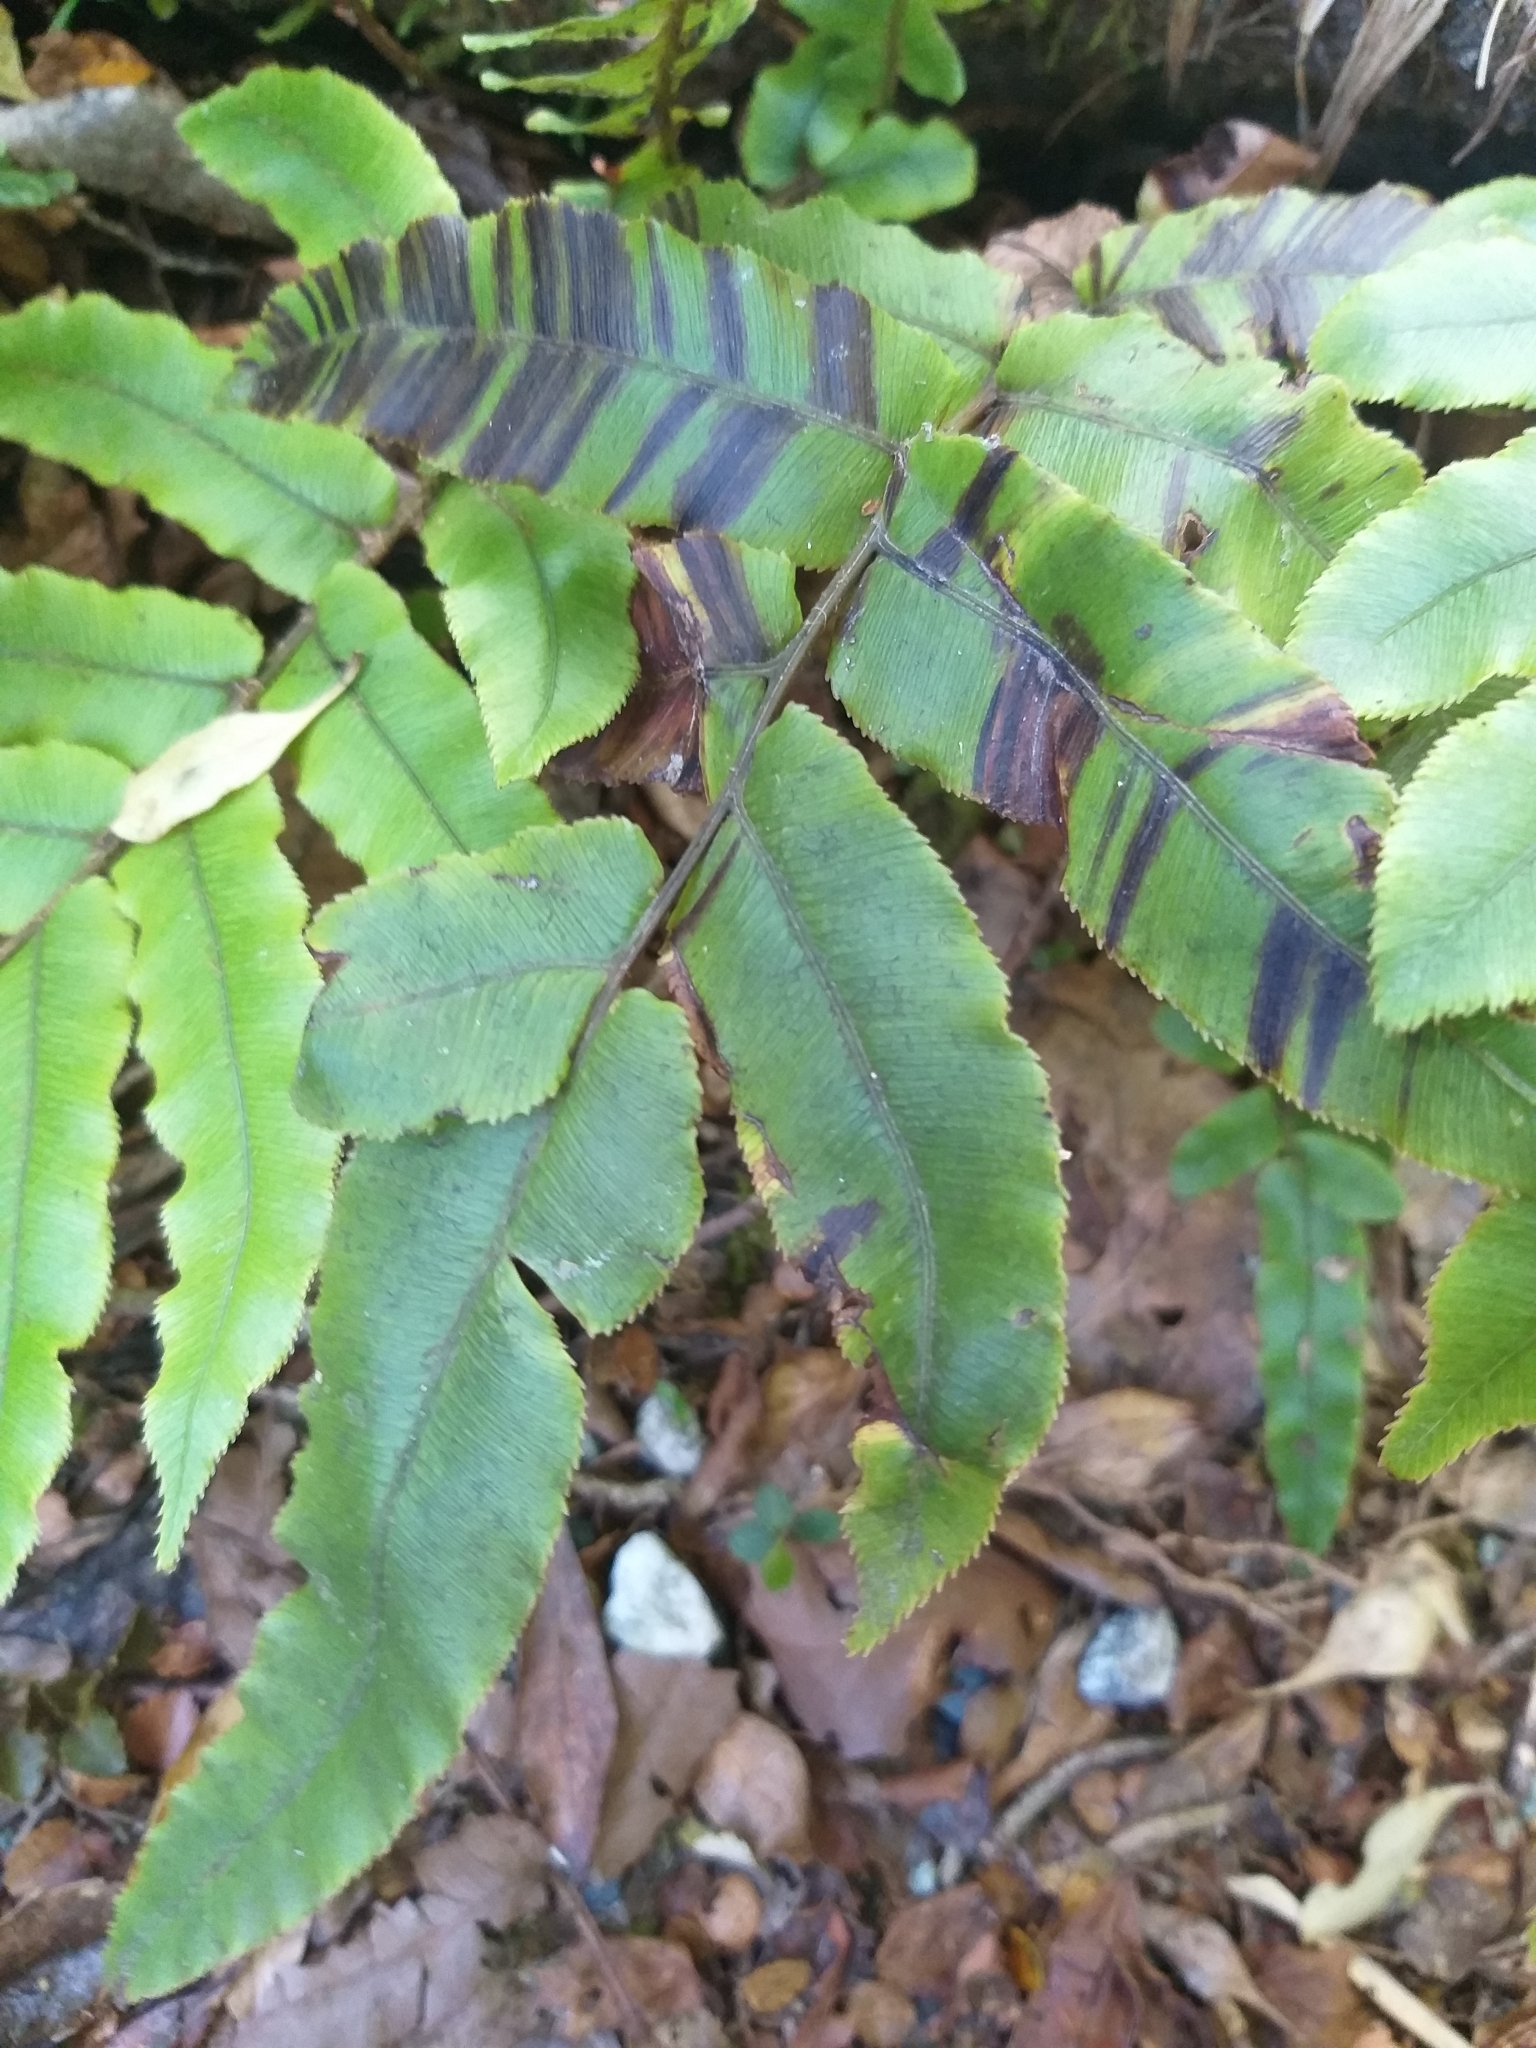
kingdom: Plantae
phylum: Tracheophyta
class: Polypodiopsida
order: Polypodiales
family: Blechnaceae
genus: Parablechnum
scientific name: Parablechnum procerum
